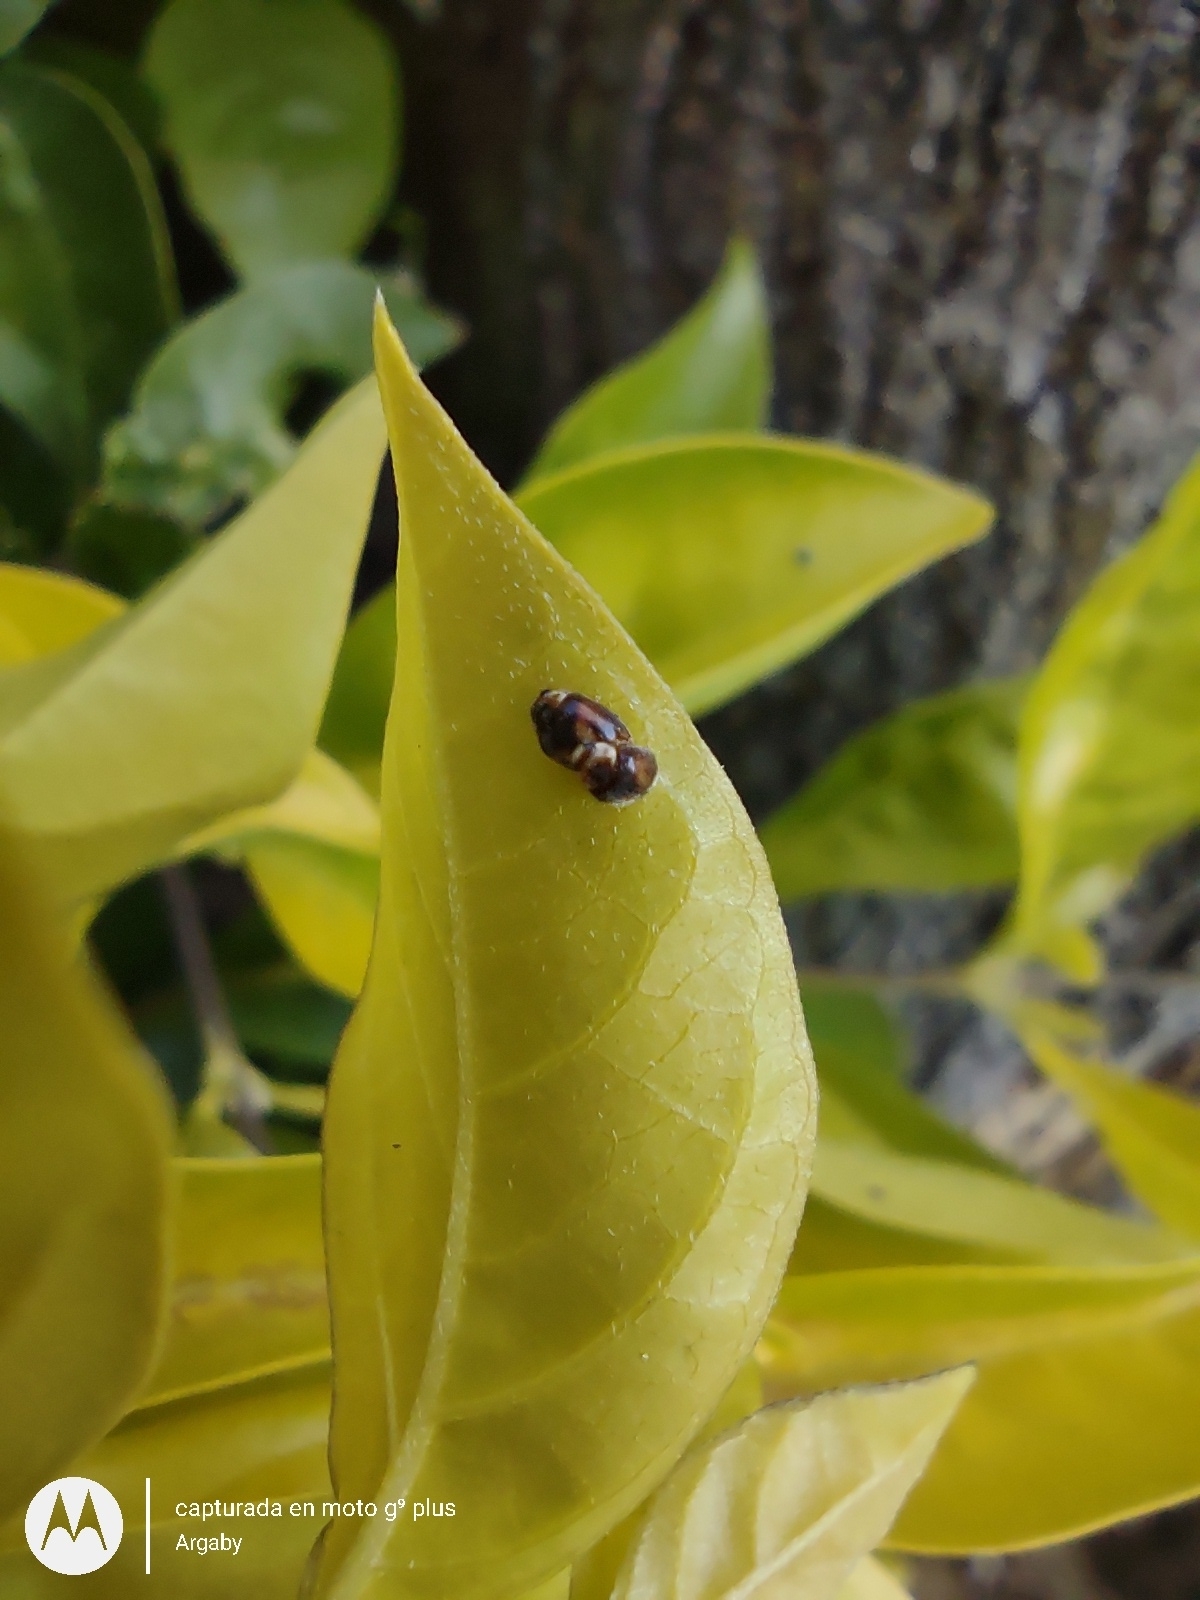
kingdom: Animalia
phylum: Arthropoda
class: Insecta
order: Coleoptera
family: Coccinellidae
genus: Diomus
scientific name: Diomus
